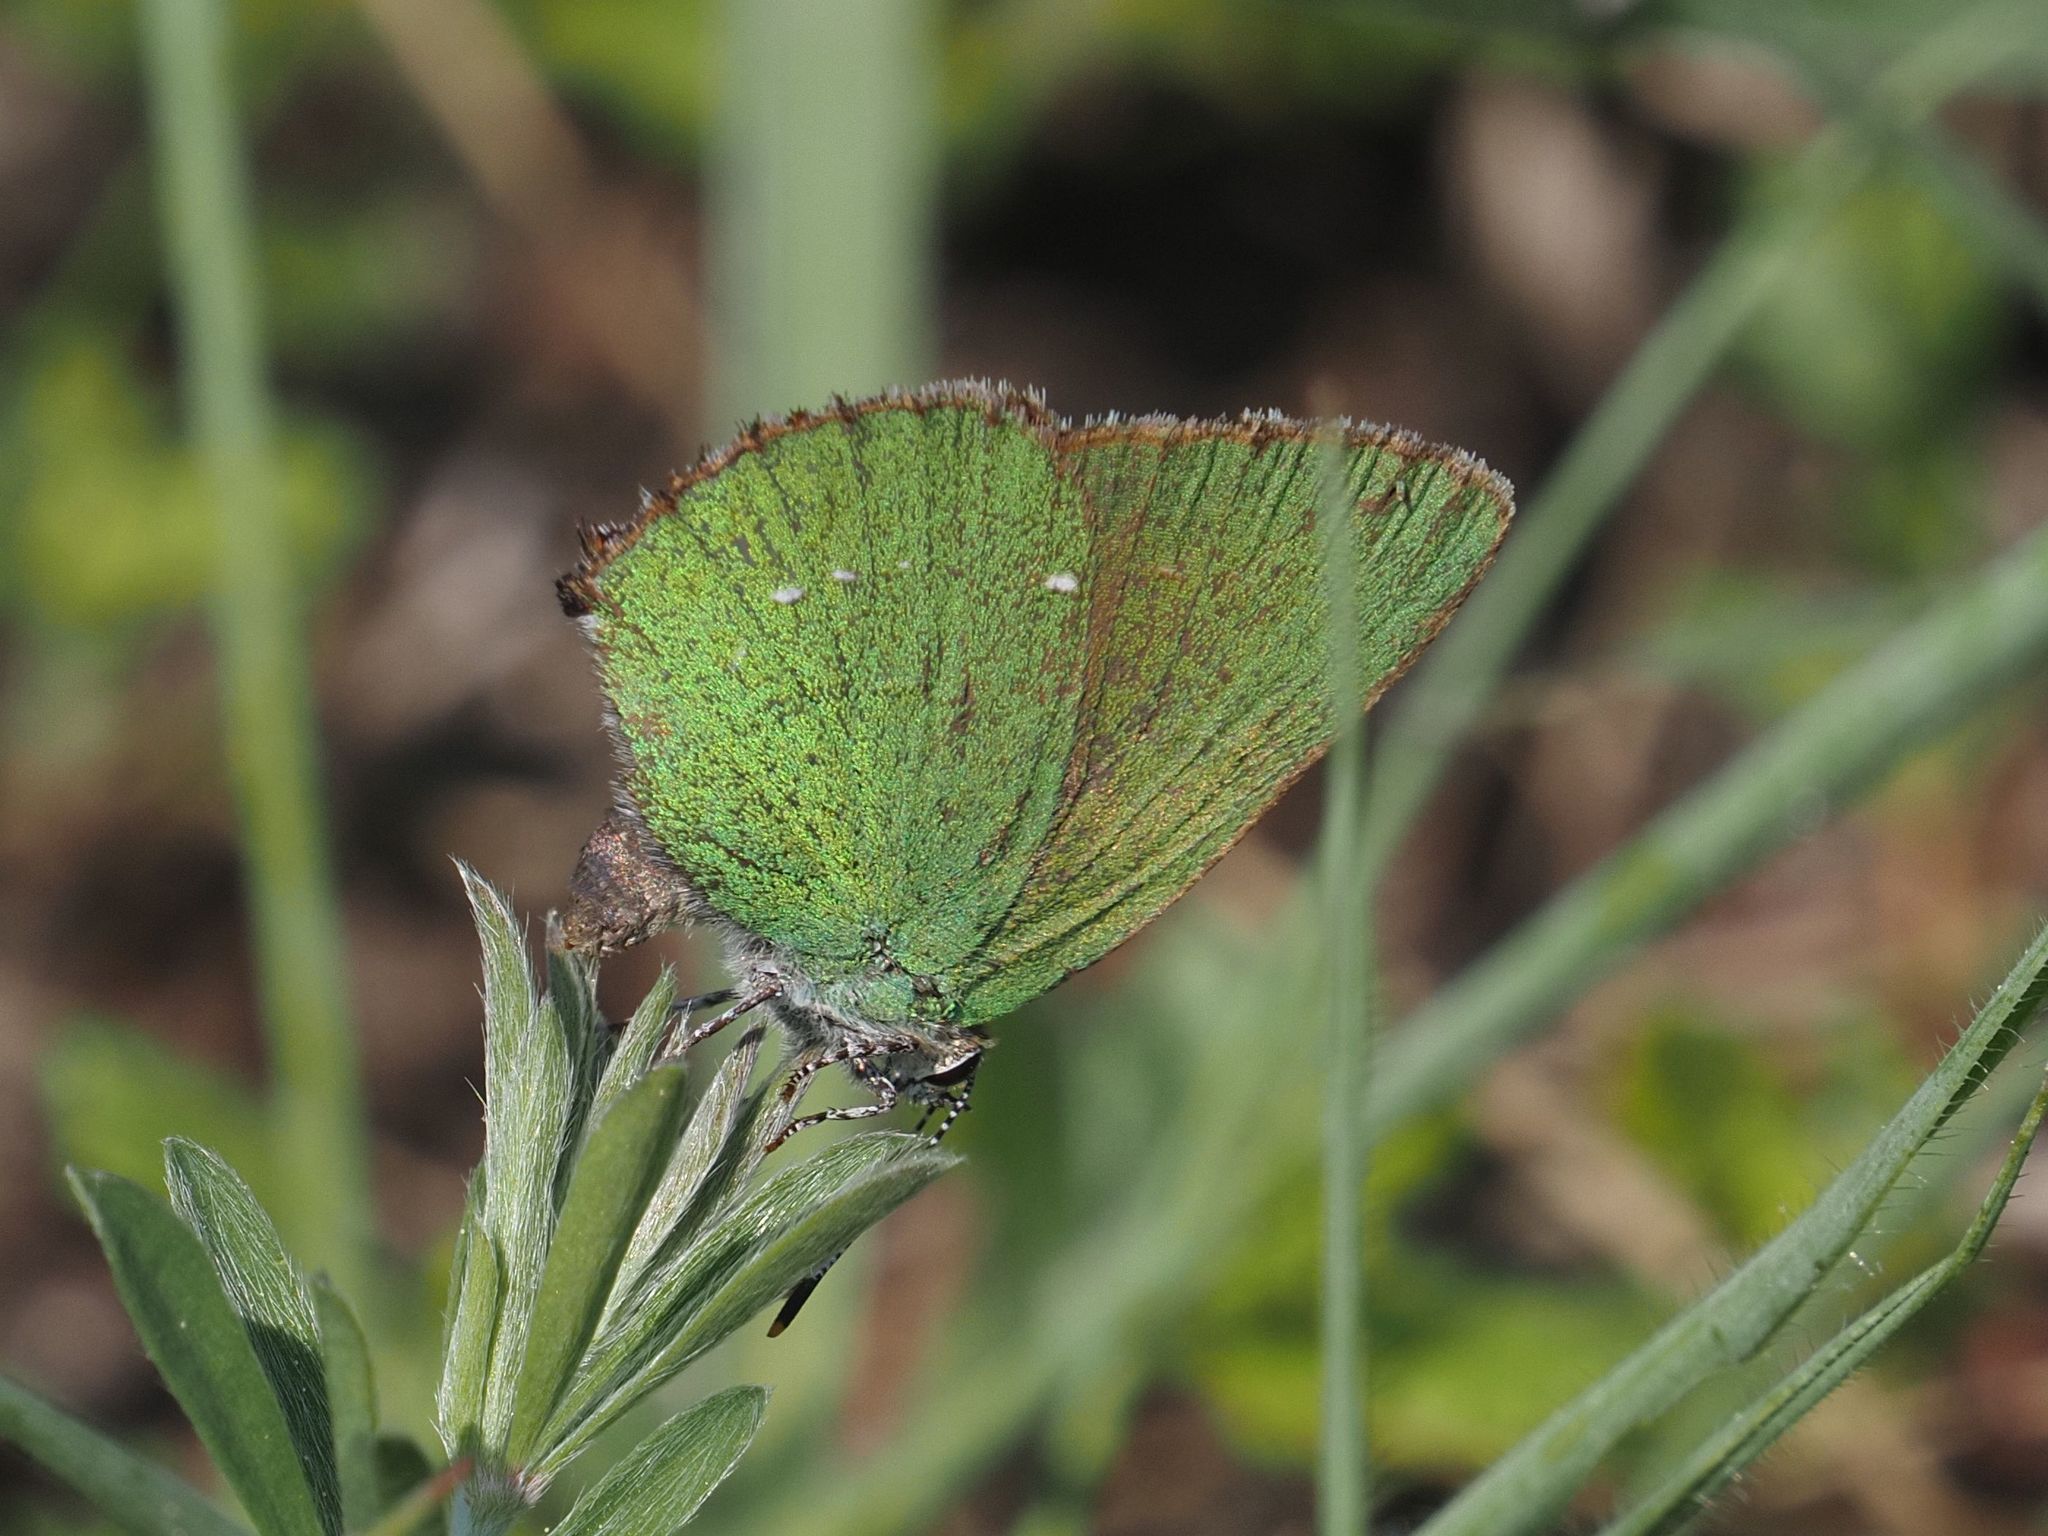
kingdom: Animalia
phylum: Arthropoda
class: Insecta
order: Lepidoptera
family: Lycaenidae
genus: Callophrys
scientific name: Callophrys rubi
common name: Green hairstreak
